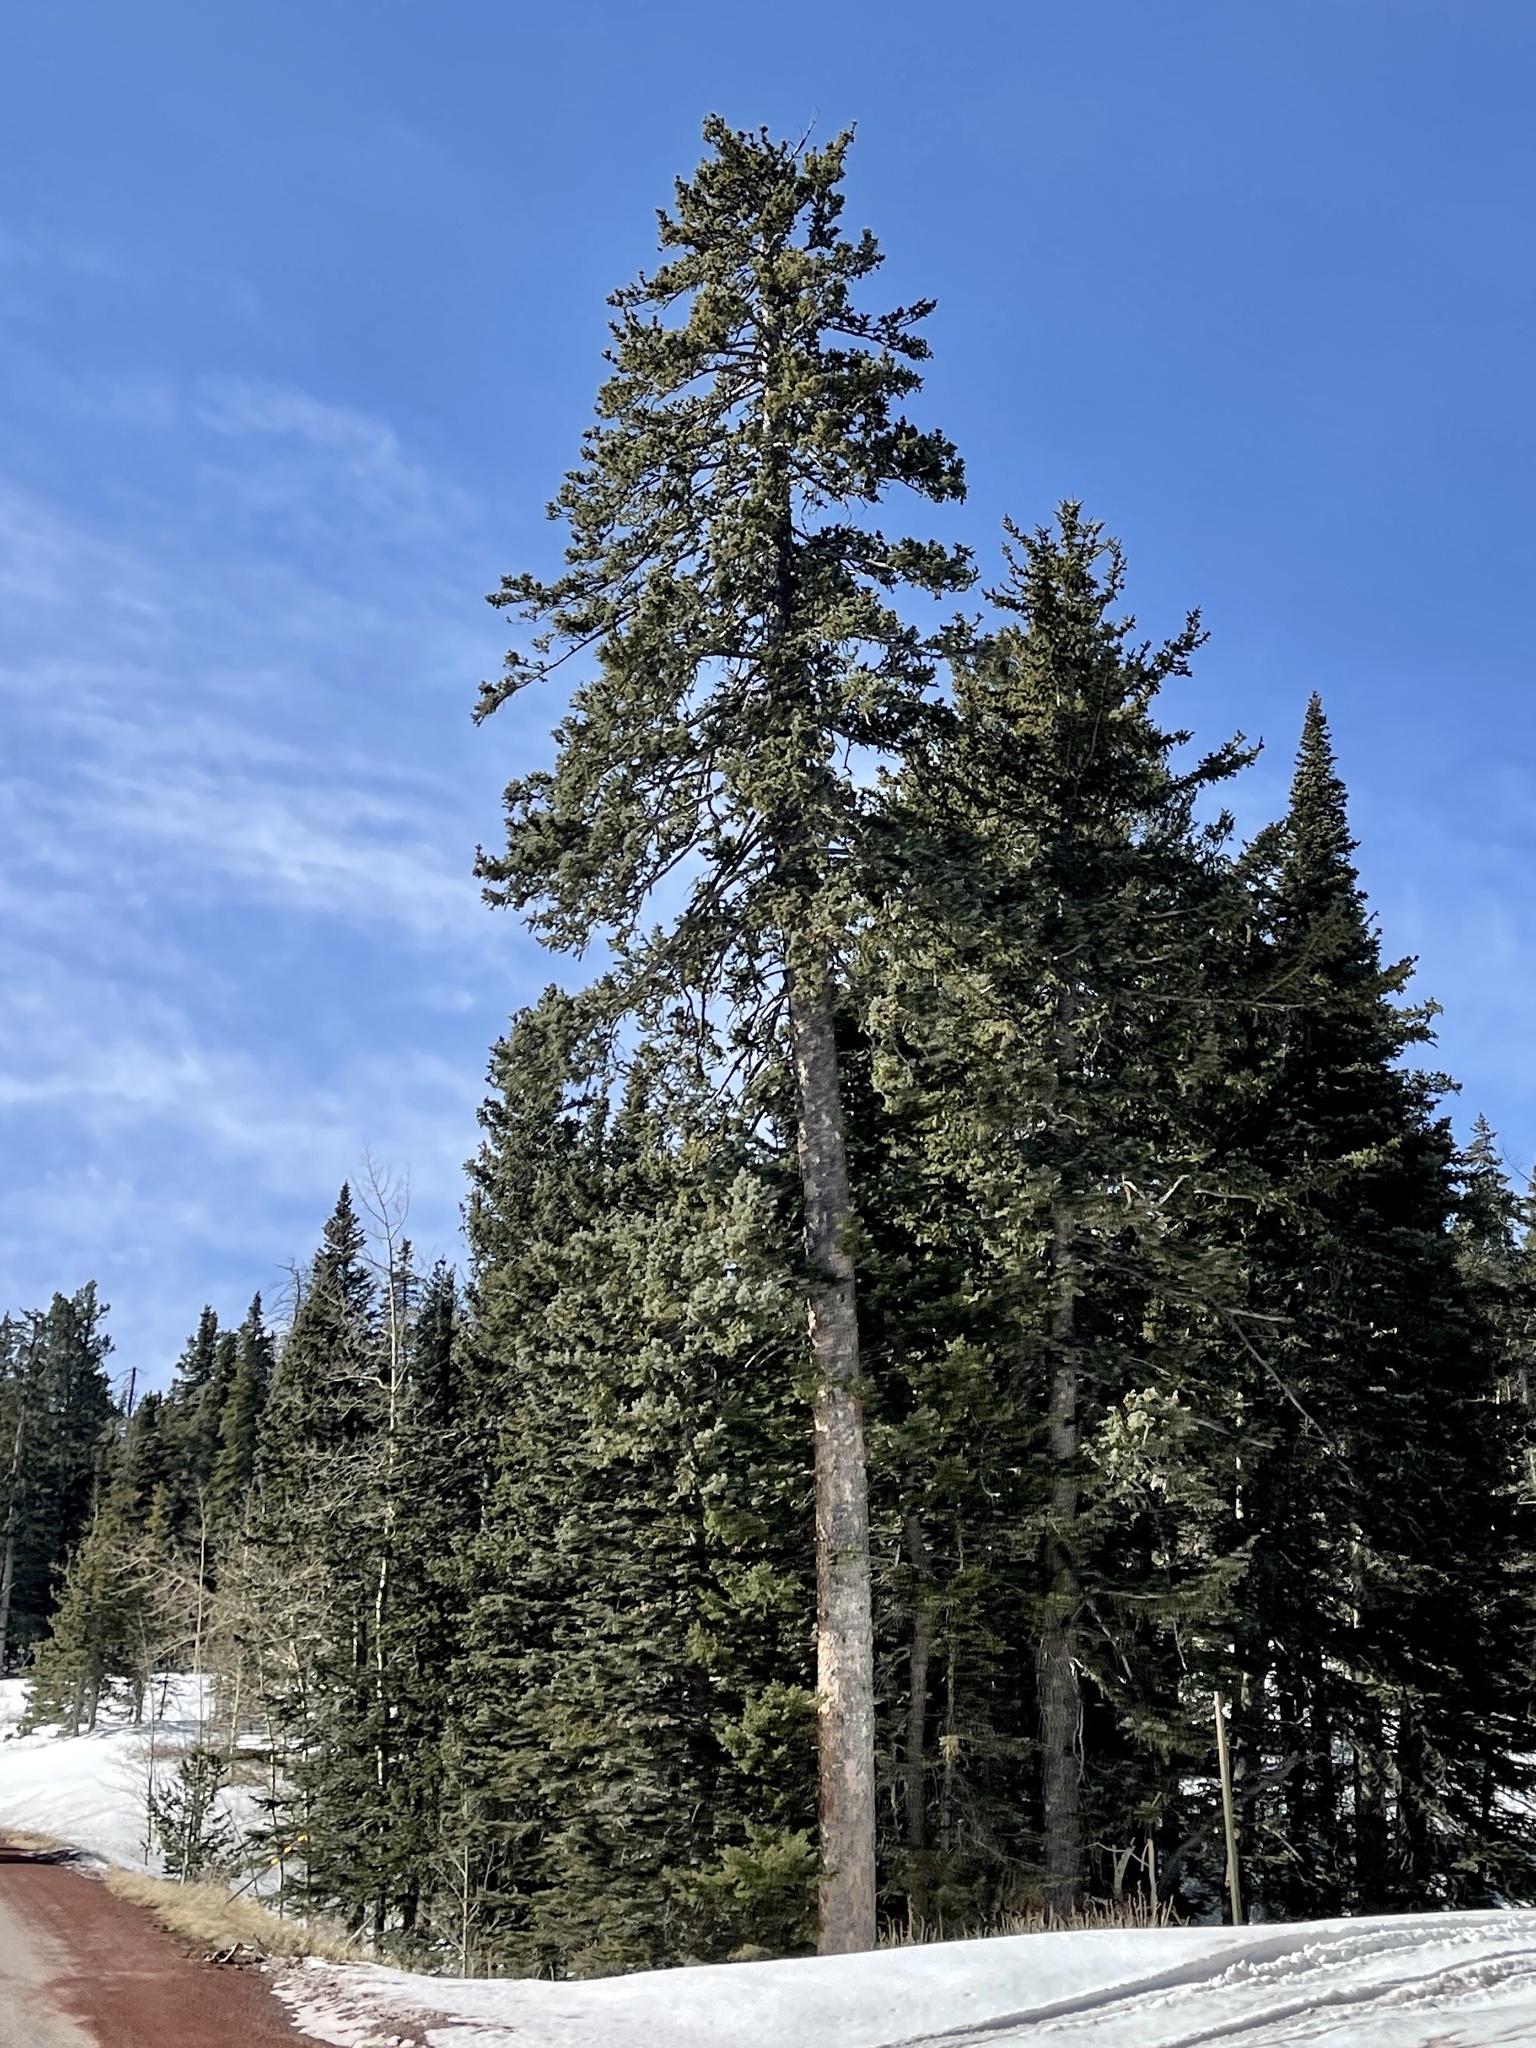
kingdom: Plantae
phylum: Tracheophyta
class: Pinopsida
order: Pinales
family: Pinaceae
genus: Picea
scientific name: Picea engelmannii
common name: Engelmann spruce
